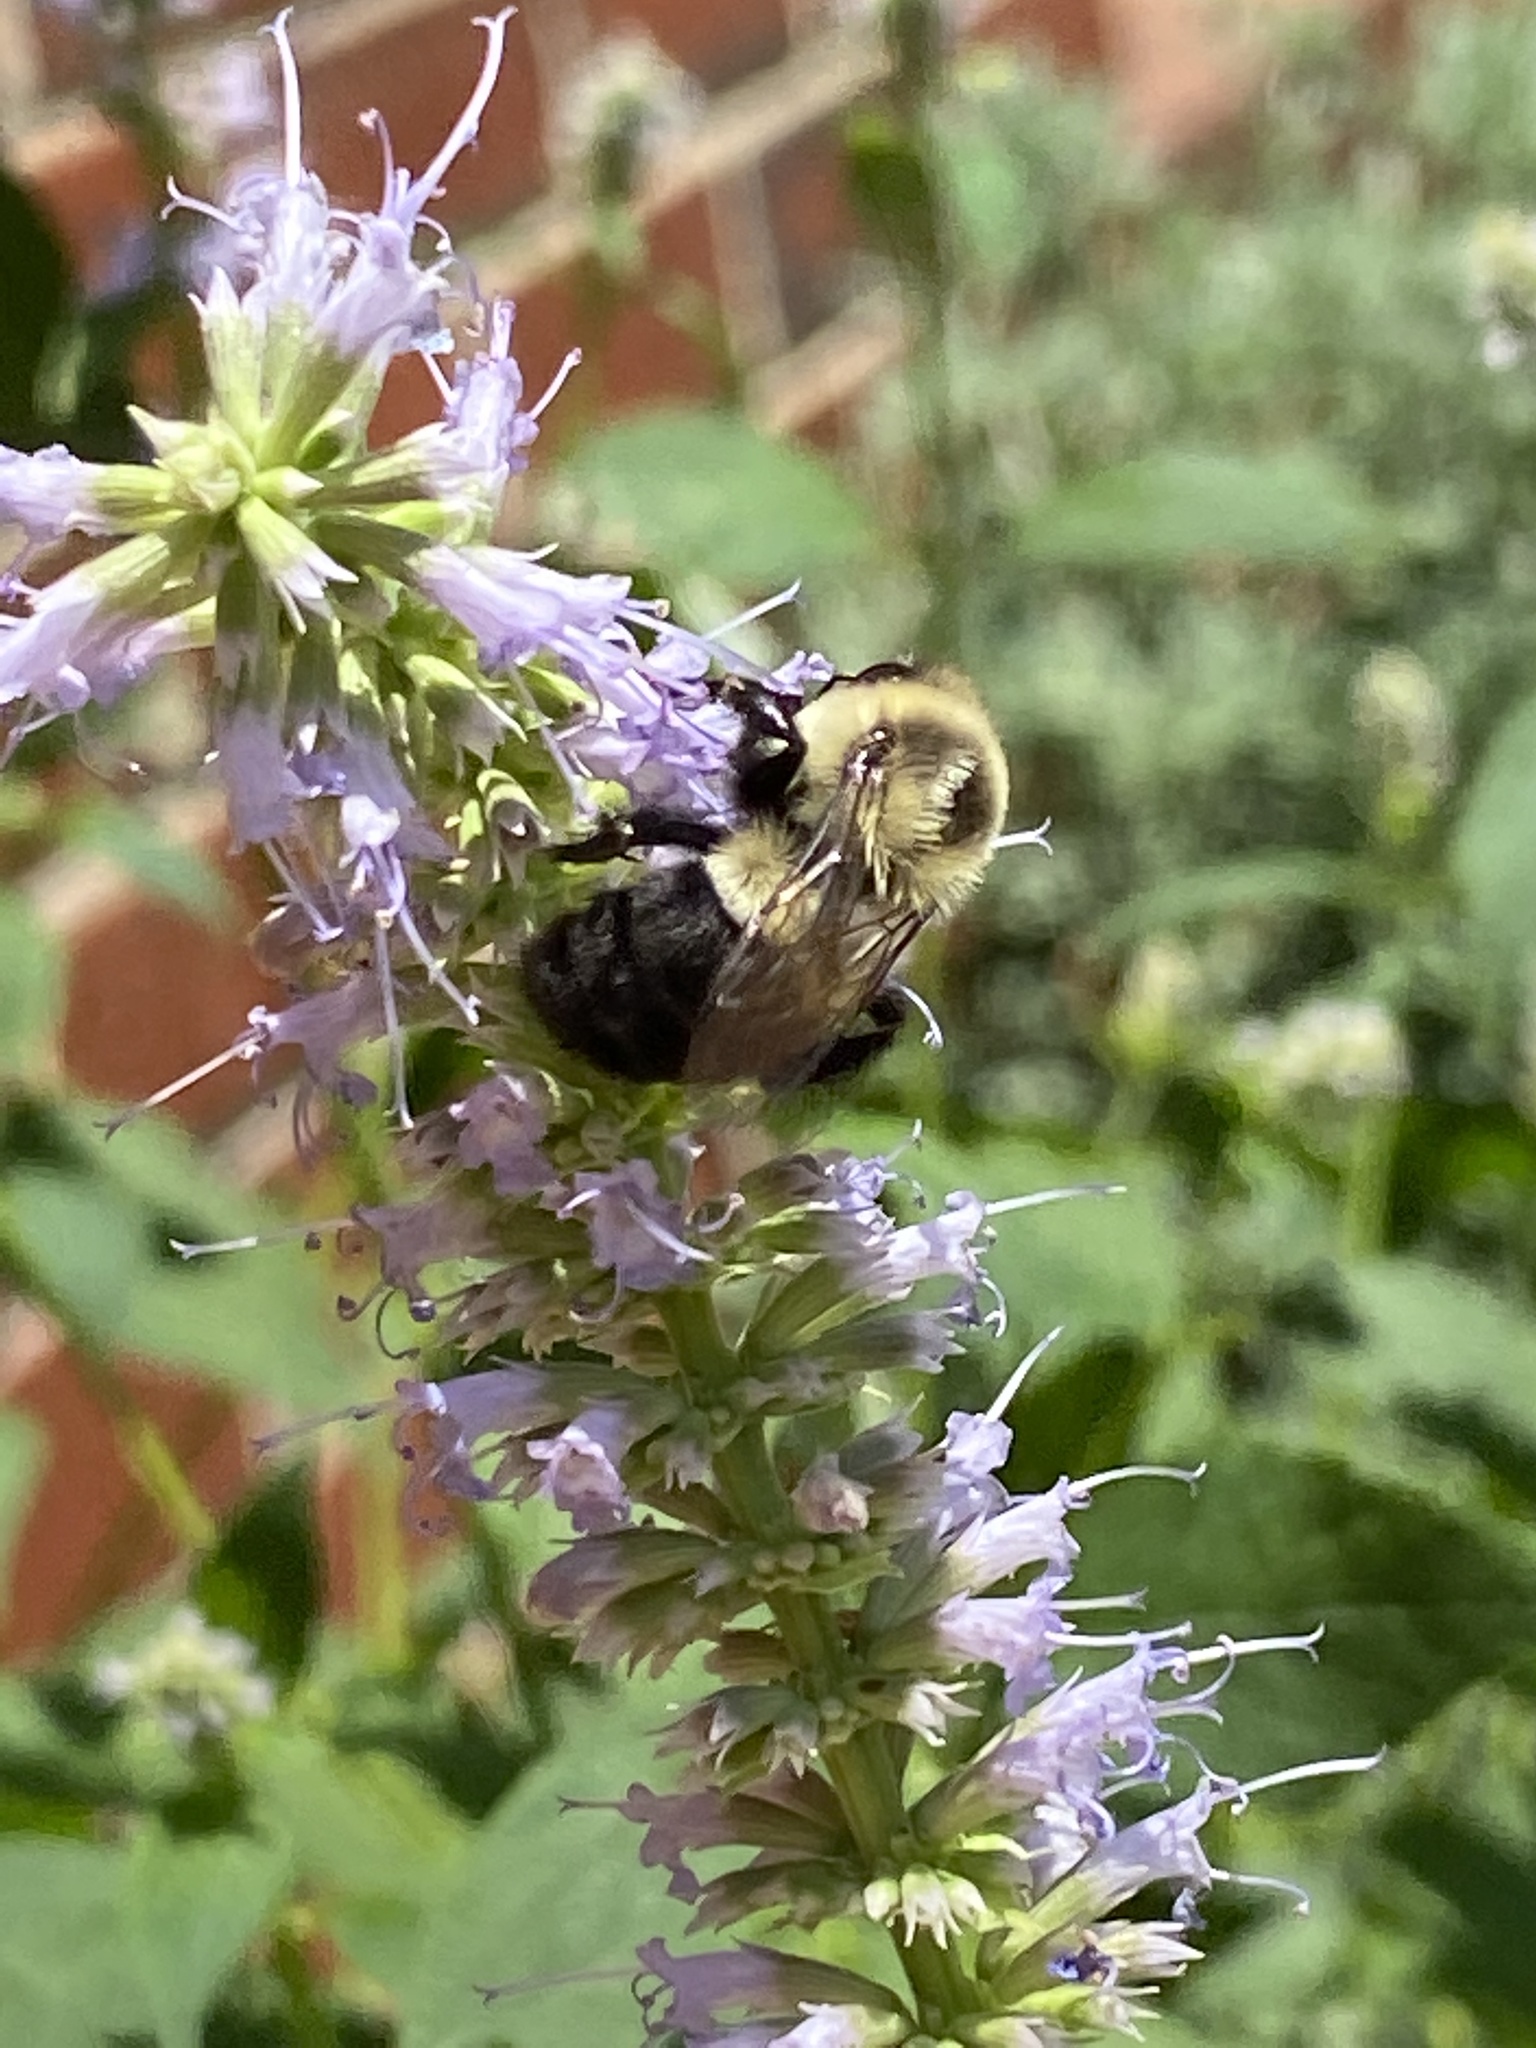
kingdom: Animalia
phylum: Arthropoda
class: Insecta
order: Hymenoptera
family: Apidae
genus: Bombus
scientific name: Bombus impatiens
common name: Common eastern bumble bee
